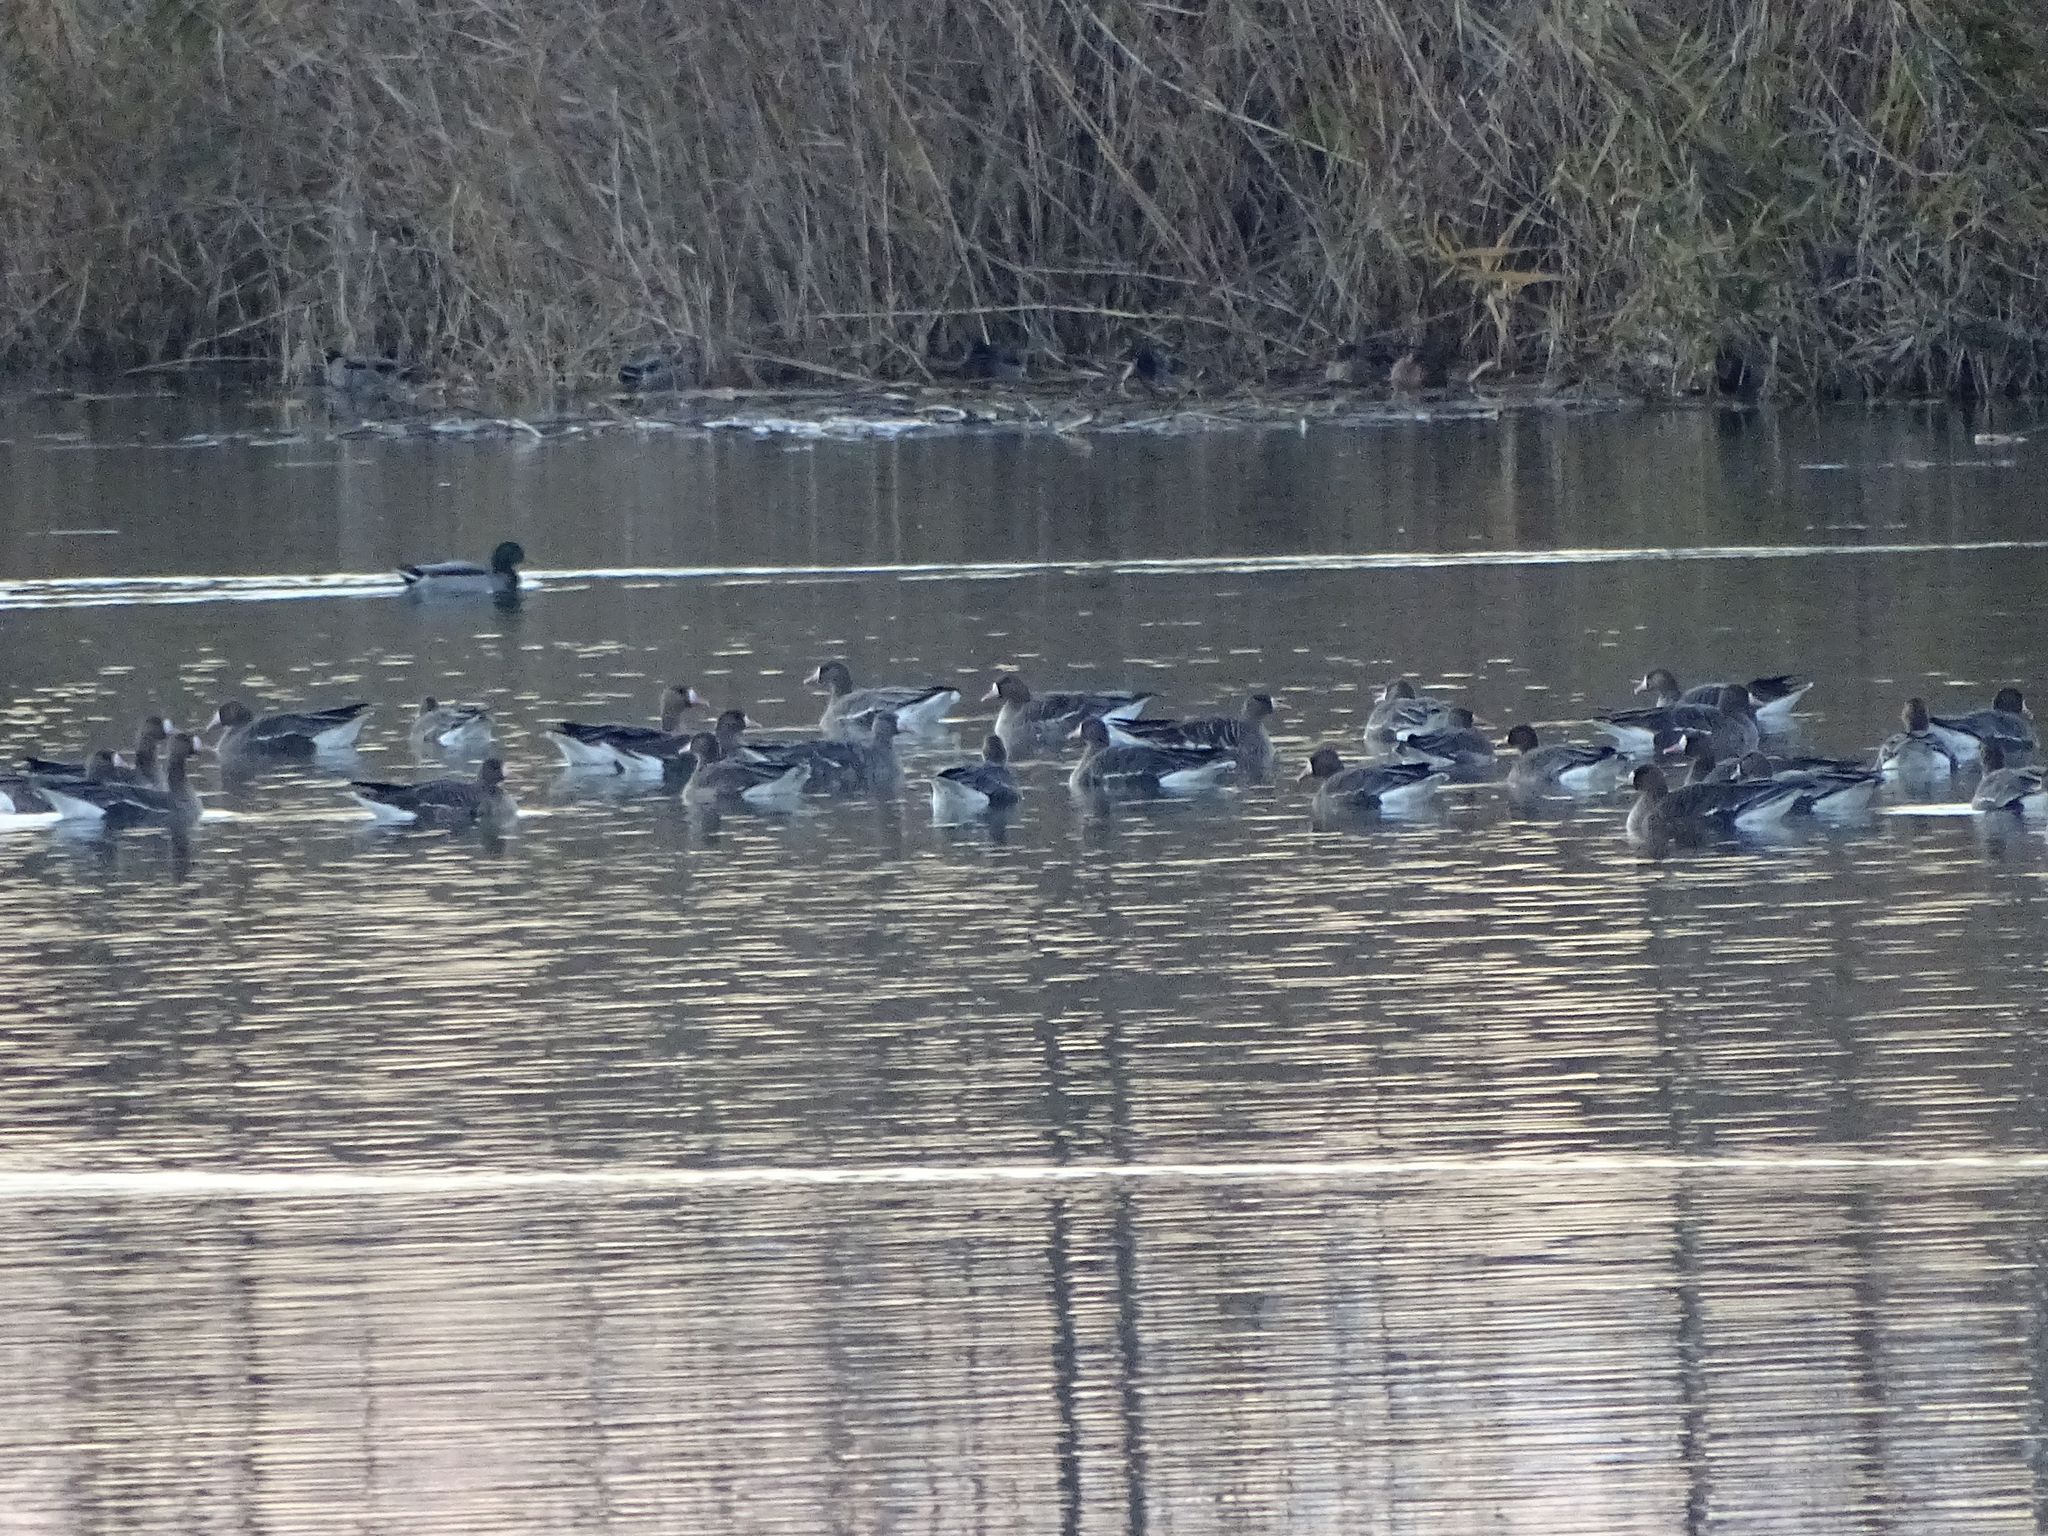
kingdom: Animalia
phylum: Chordata
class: Aves
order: Anseriformes
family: Anatidae
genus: Anser
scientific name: Anser albifrons
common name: Greater white-fronted goose
